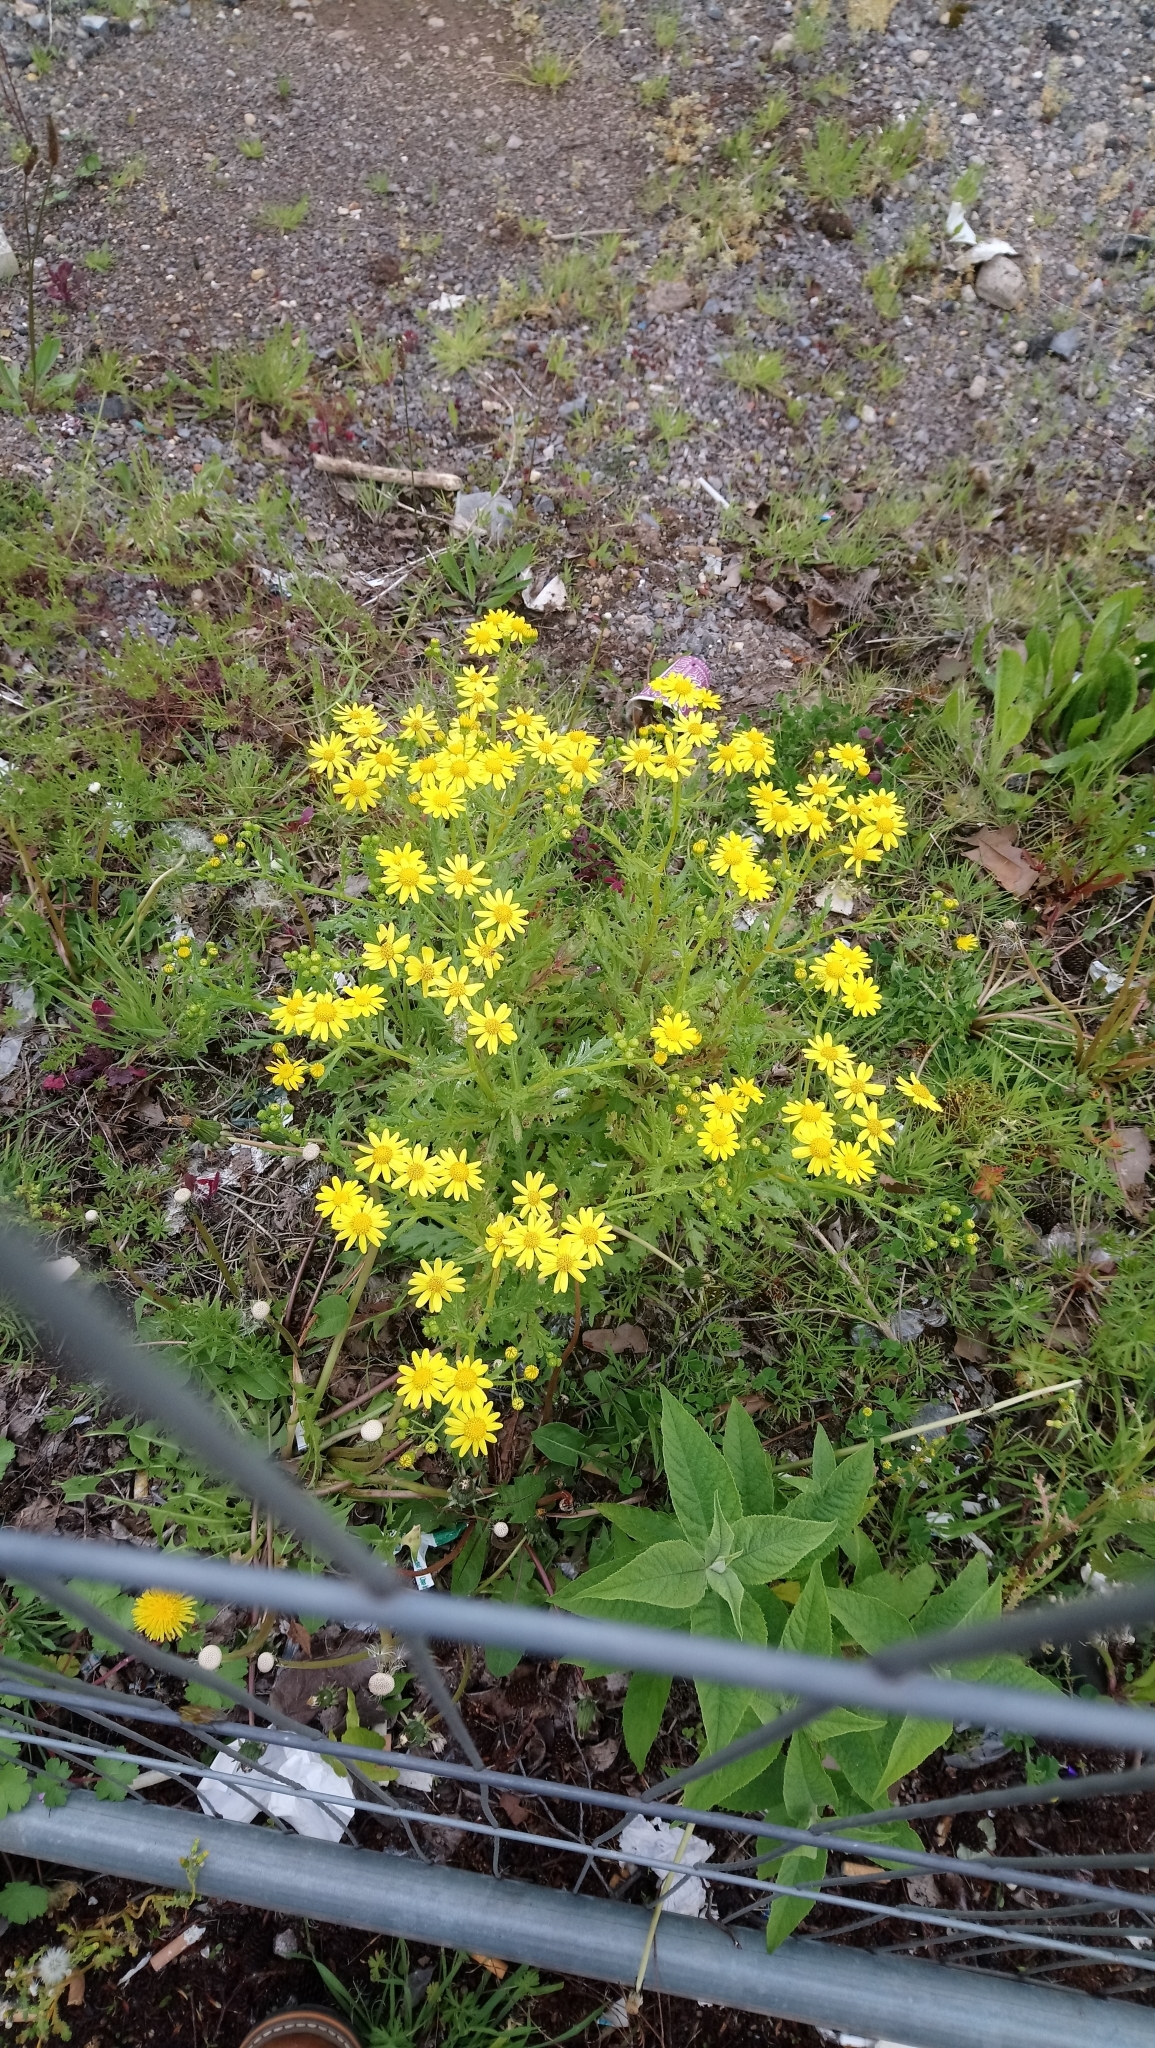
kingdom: Plantae
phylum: Tracheophyta
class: Magnoliopsida
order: Asterales
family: Asteraceae
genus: Senecio
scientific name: Senecio squalidus
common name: Oxford ragwort
